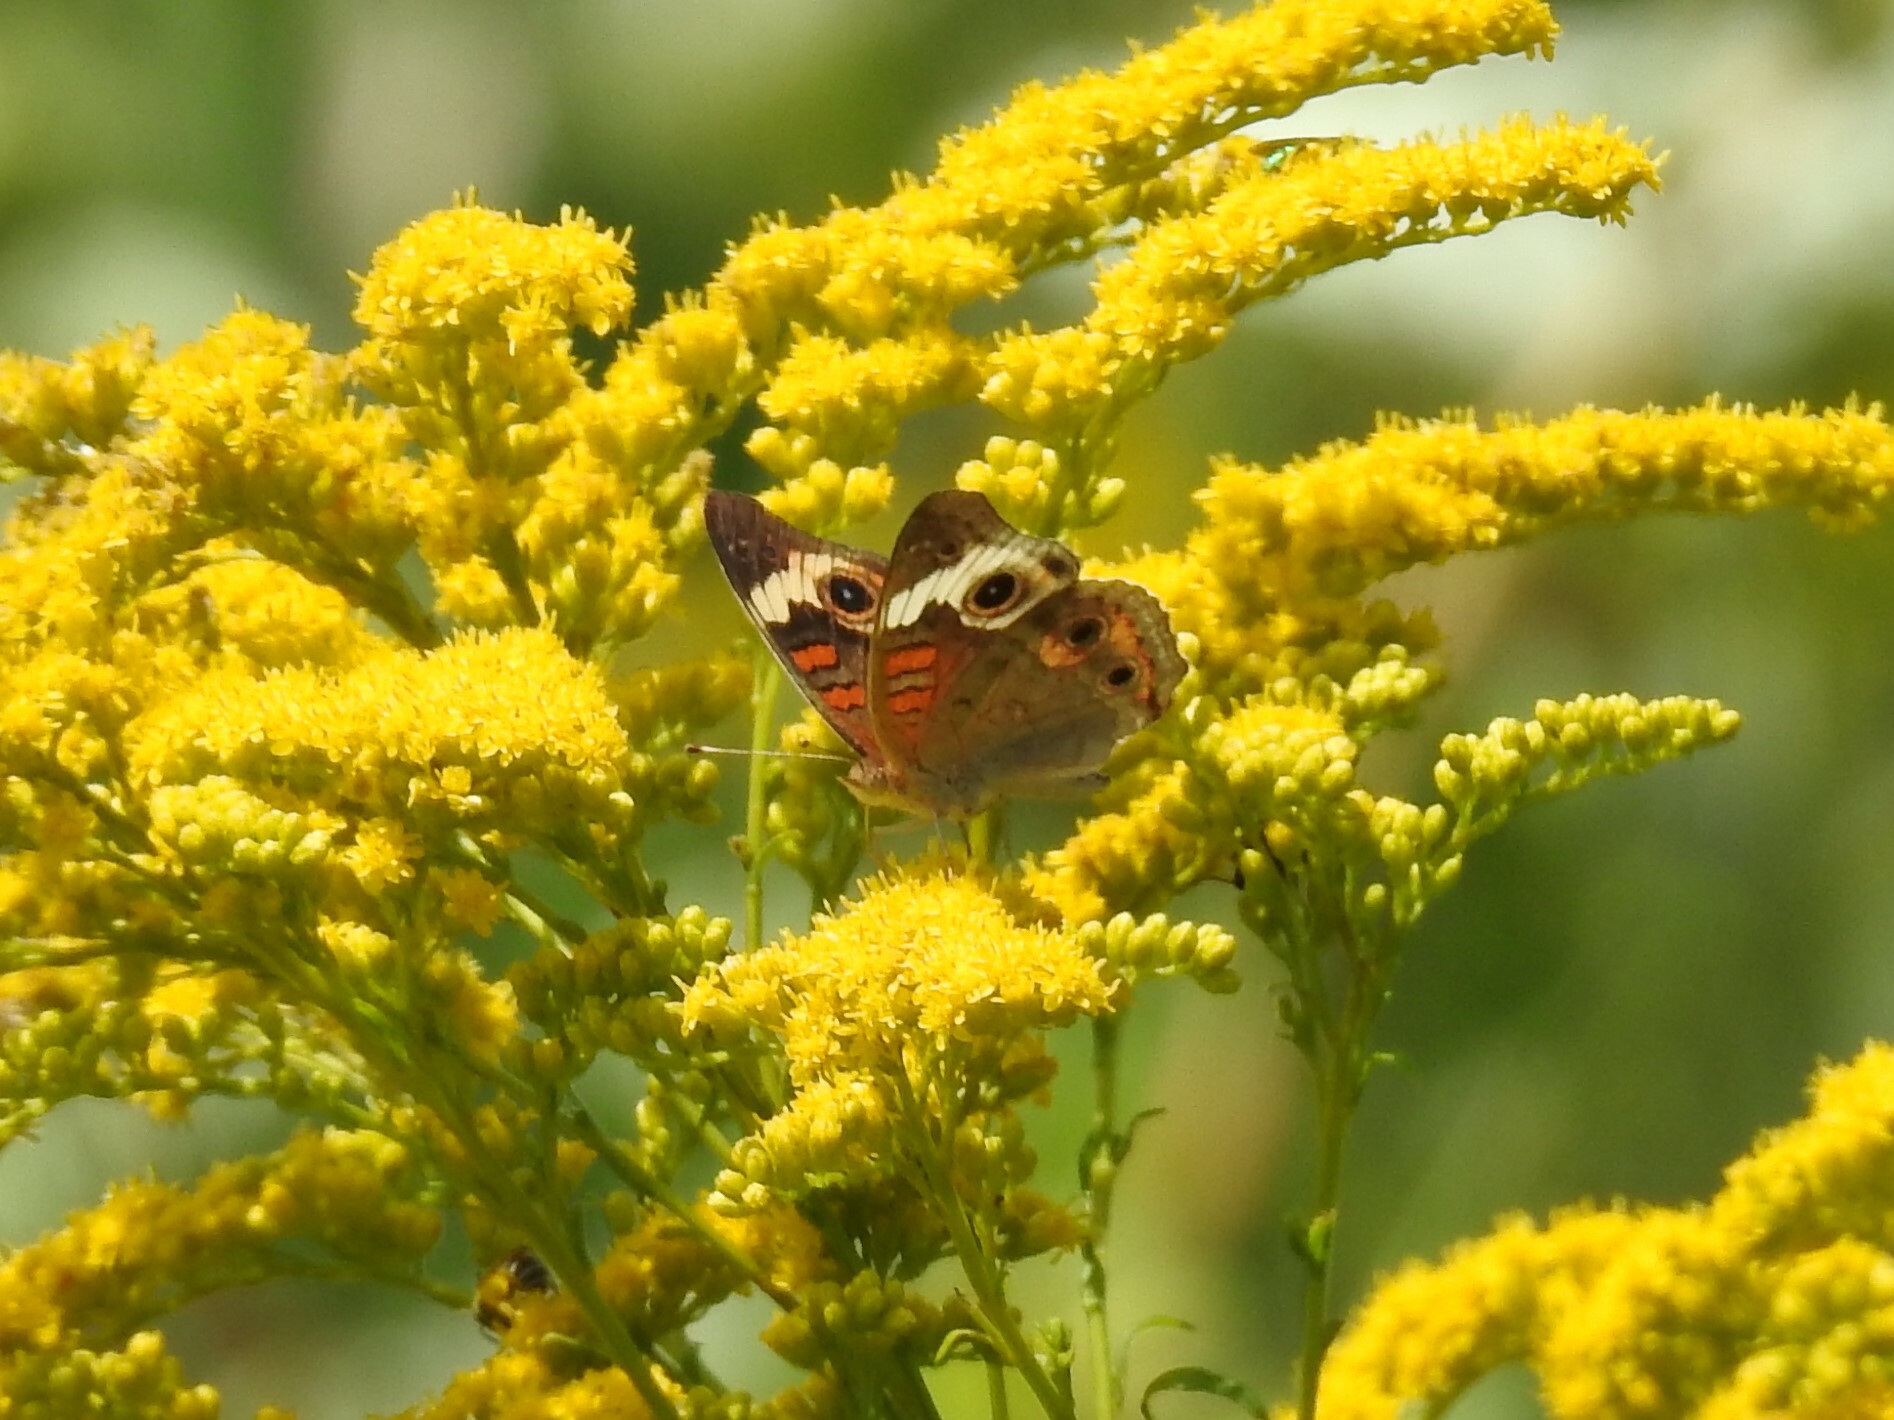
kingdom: Animalia
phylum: Arthropoda
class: Insecta
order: Lepidoptera
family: Nymphalidae
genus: Junonia
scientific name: Junonia coenia
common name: Common buckeye
